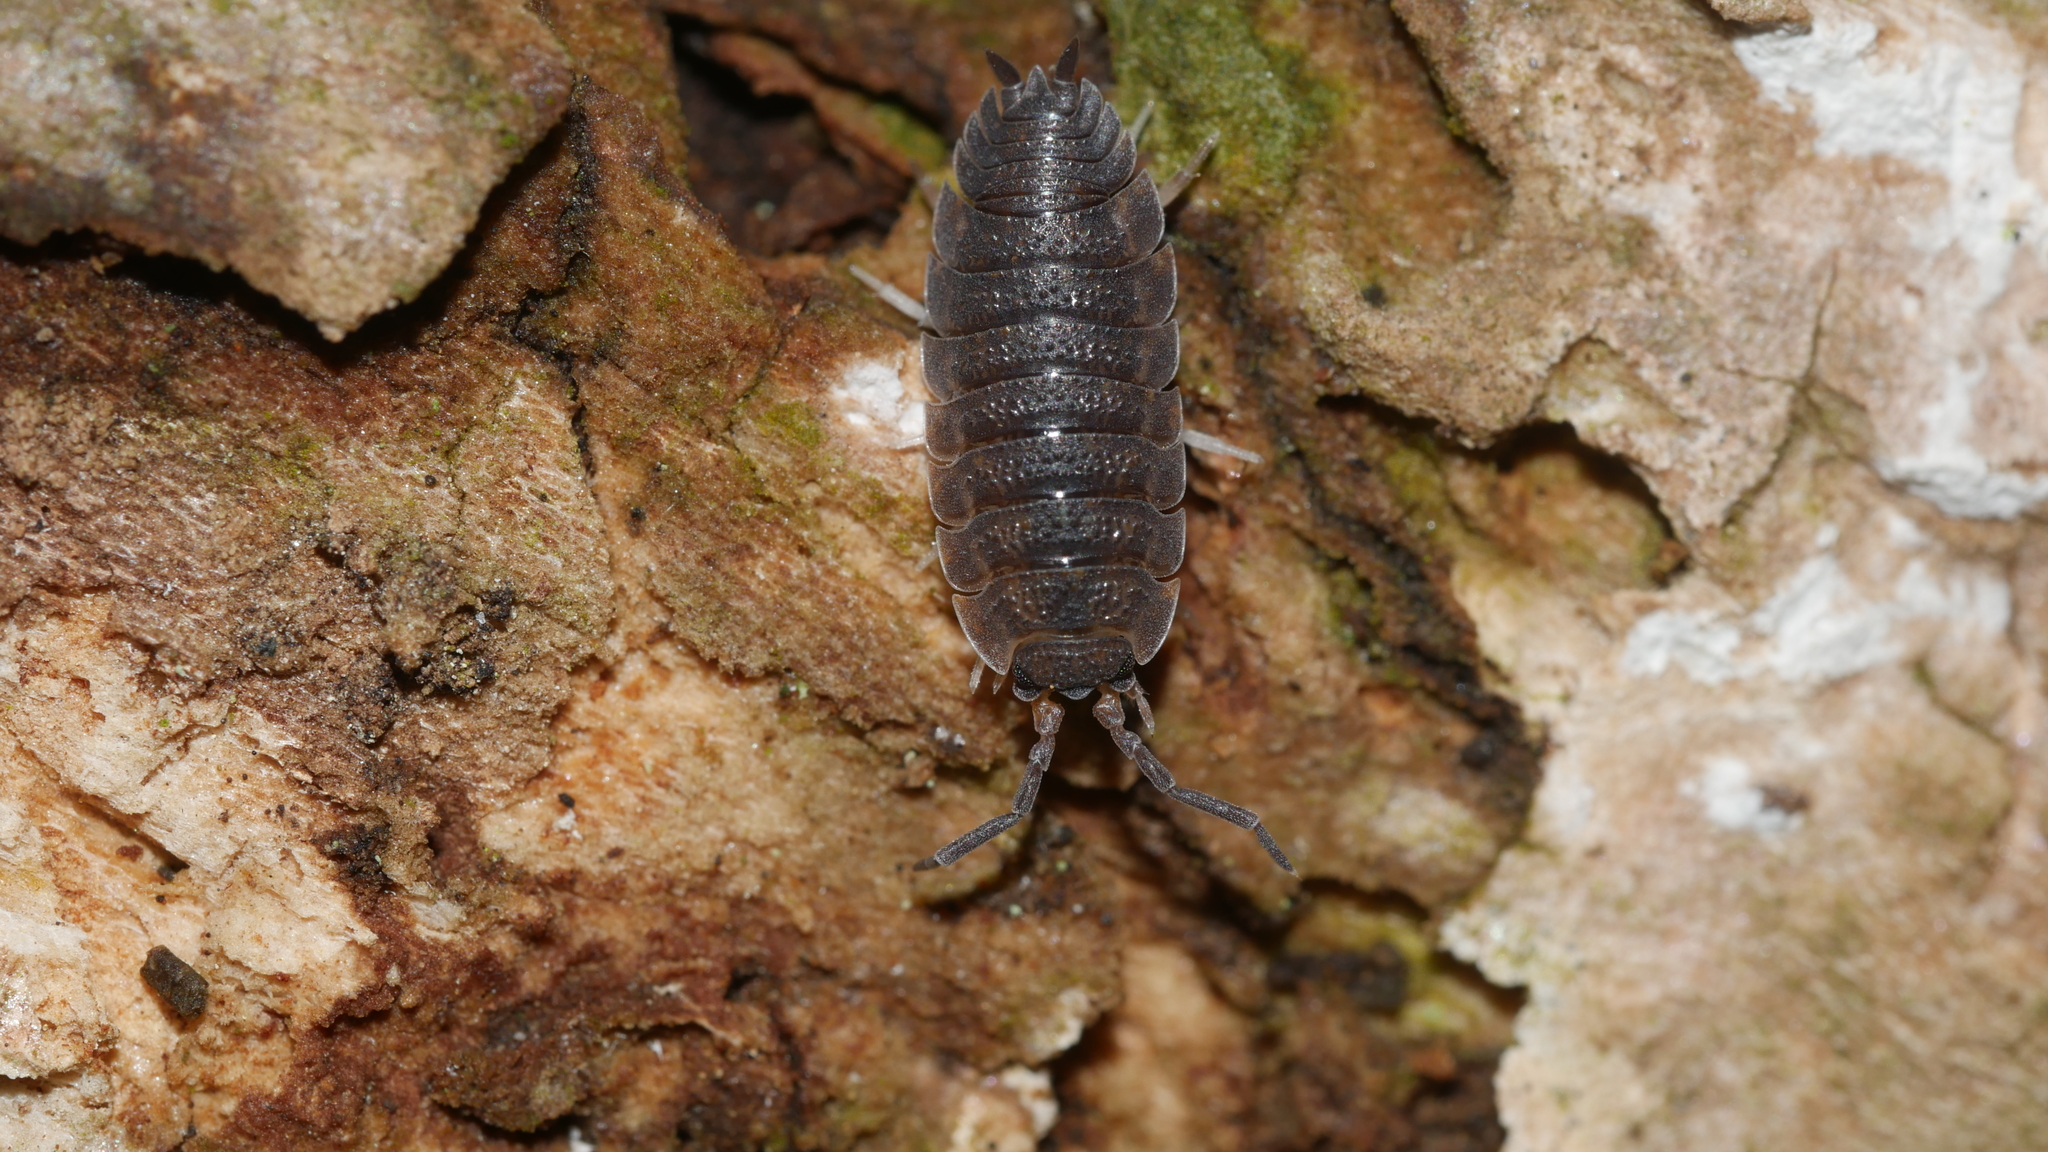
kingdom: Animalia
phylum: Arthropoda
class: Malacostraca
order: Isopoda
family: Porcellionidae
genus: Porcellio
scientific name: Porcellio scaber
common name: Common rough woodlouse
